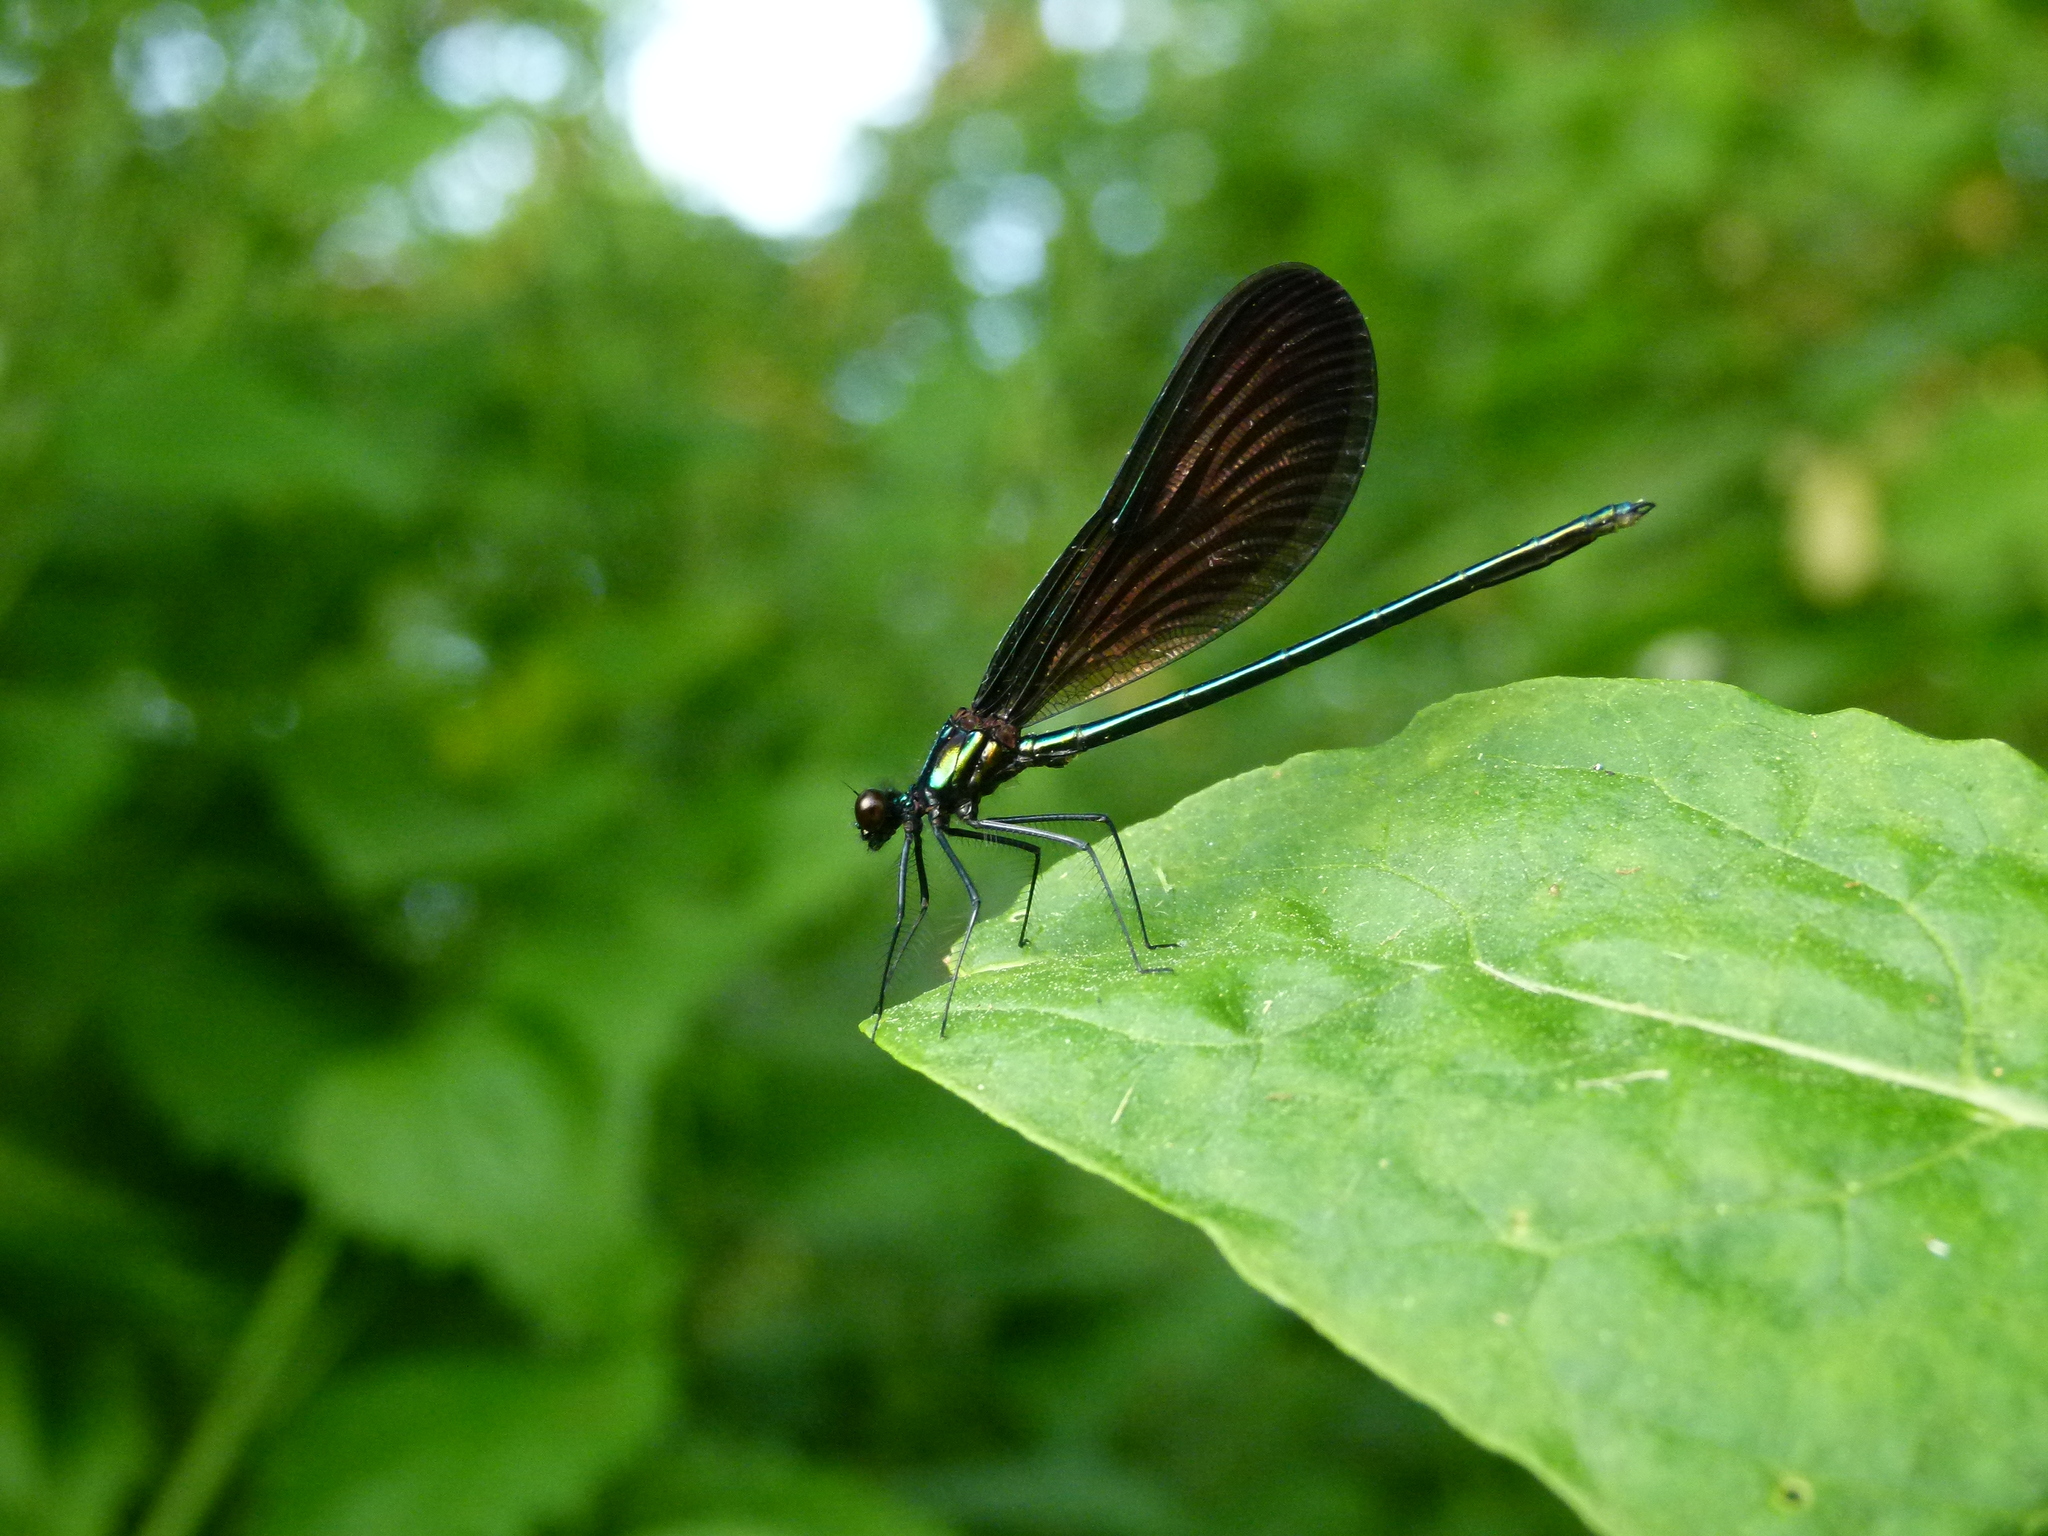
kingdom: Animalia
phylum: Arthropoda
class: Insecta
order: Odonata
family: Calopterygidae
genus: Calopteryx
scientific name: Calopteryx maculata
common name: Ebony jewelwing
